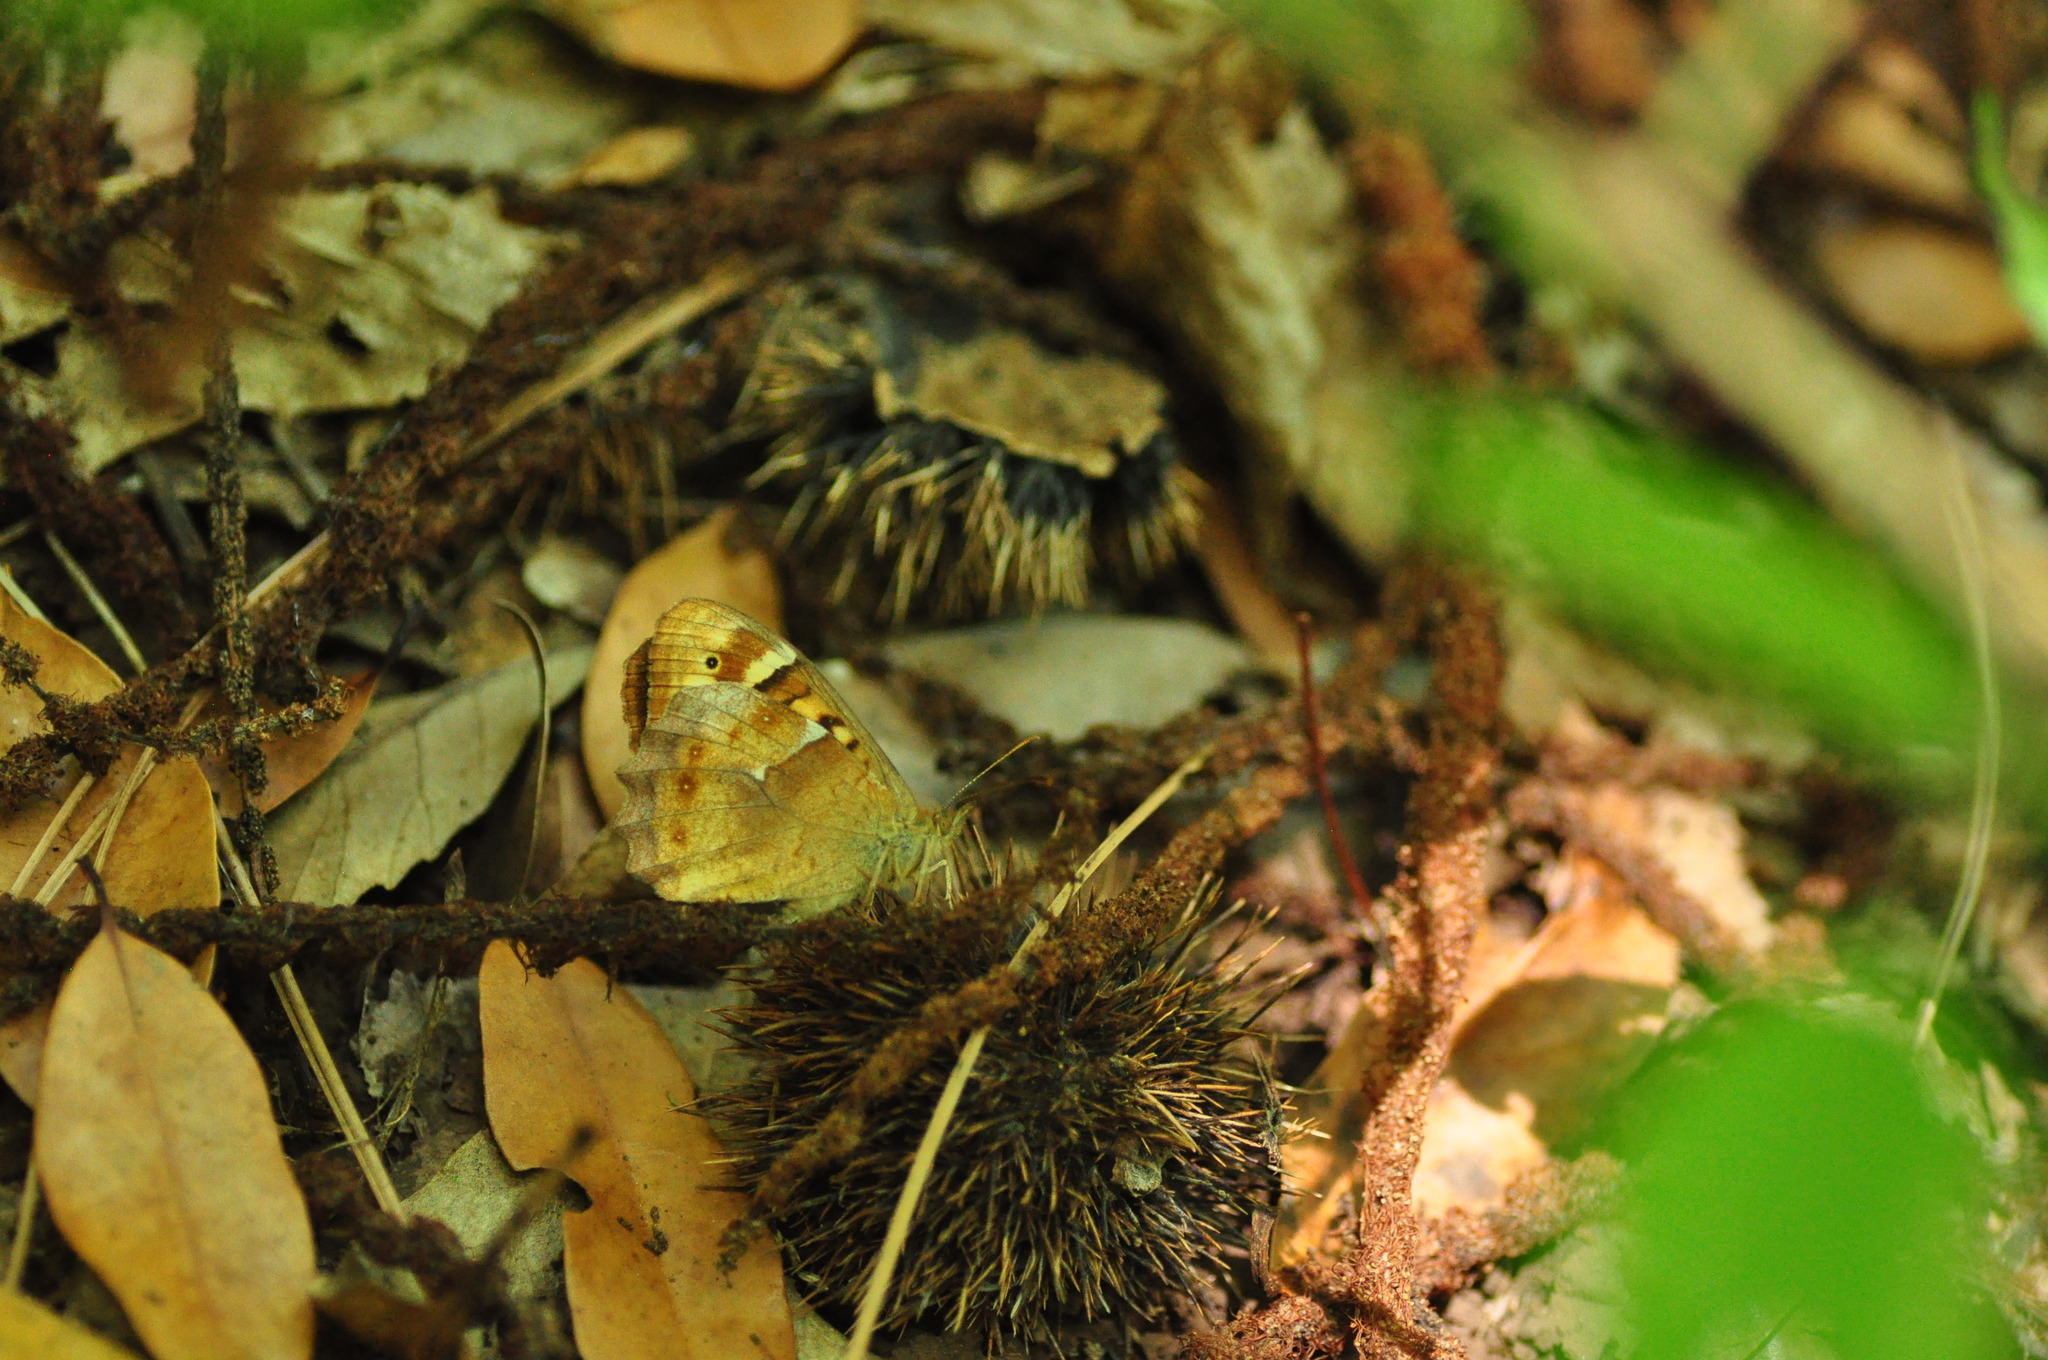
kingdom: Animalia
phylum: Arthropoda
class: Insecta
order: Lepidoptera
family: Nymphalidae
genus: Pararge
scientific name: Pararge aegeria
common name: Speckled wood
